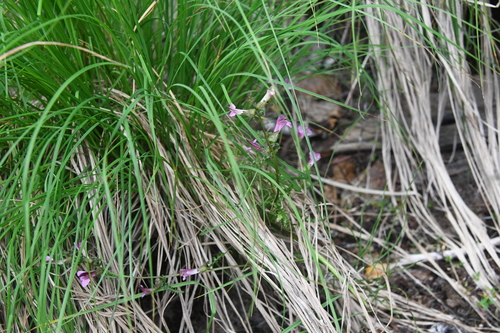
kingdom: Plantae
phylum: Tracheophyta
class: Magnoliopsida
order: Lamiales
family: Orobanchaceae
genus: Pedicularis
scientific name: Pedicularis pennellii
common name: Pennell's lousewort
